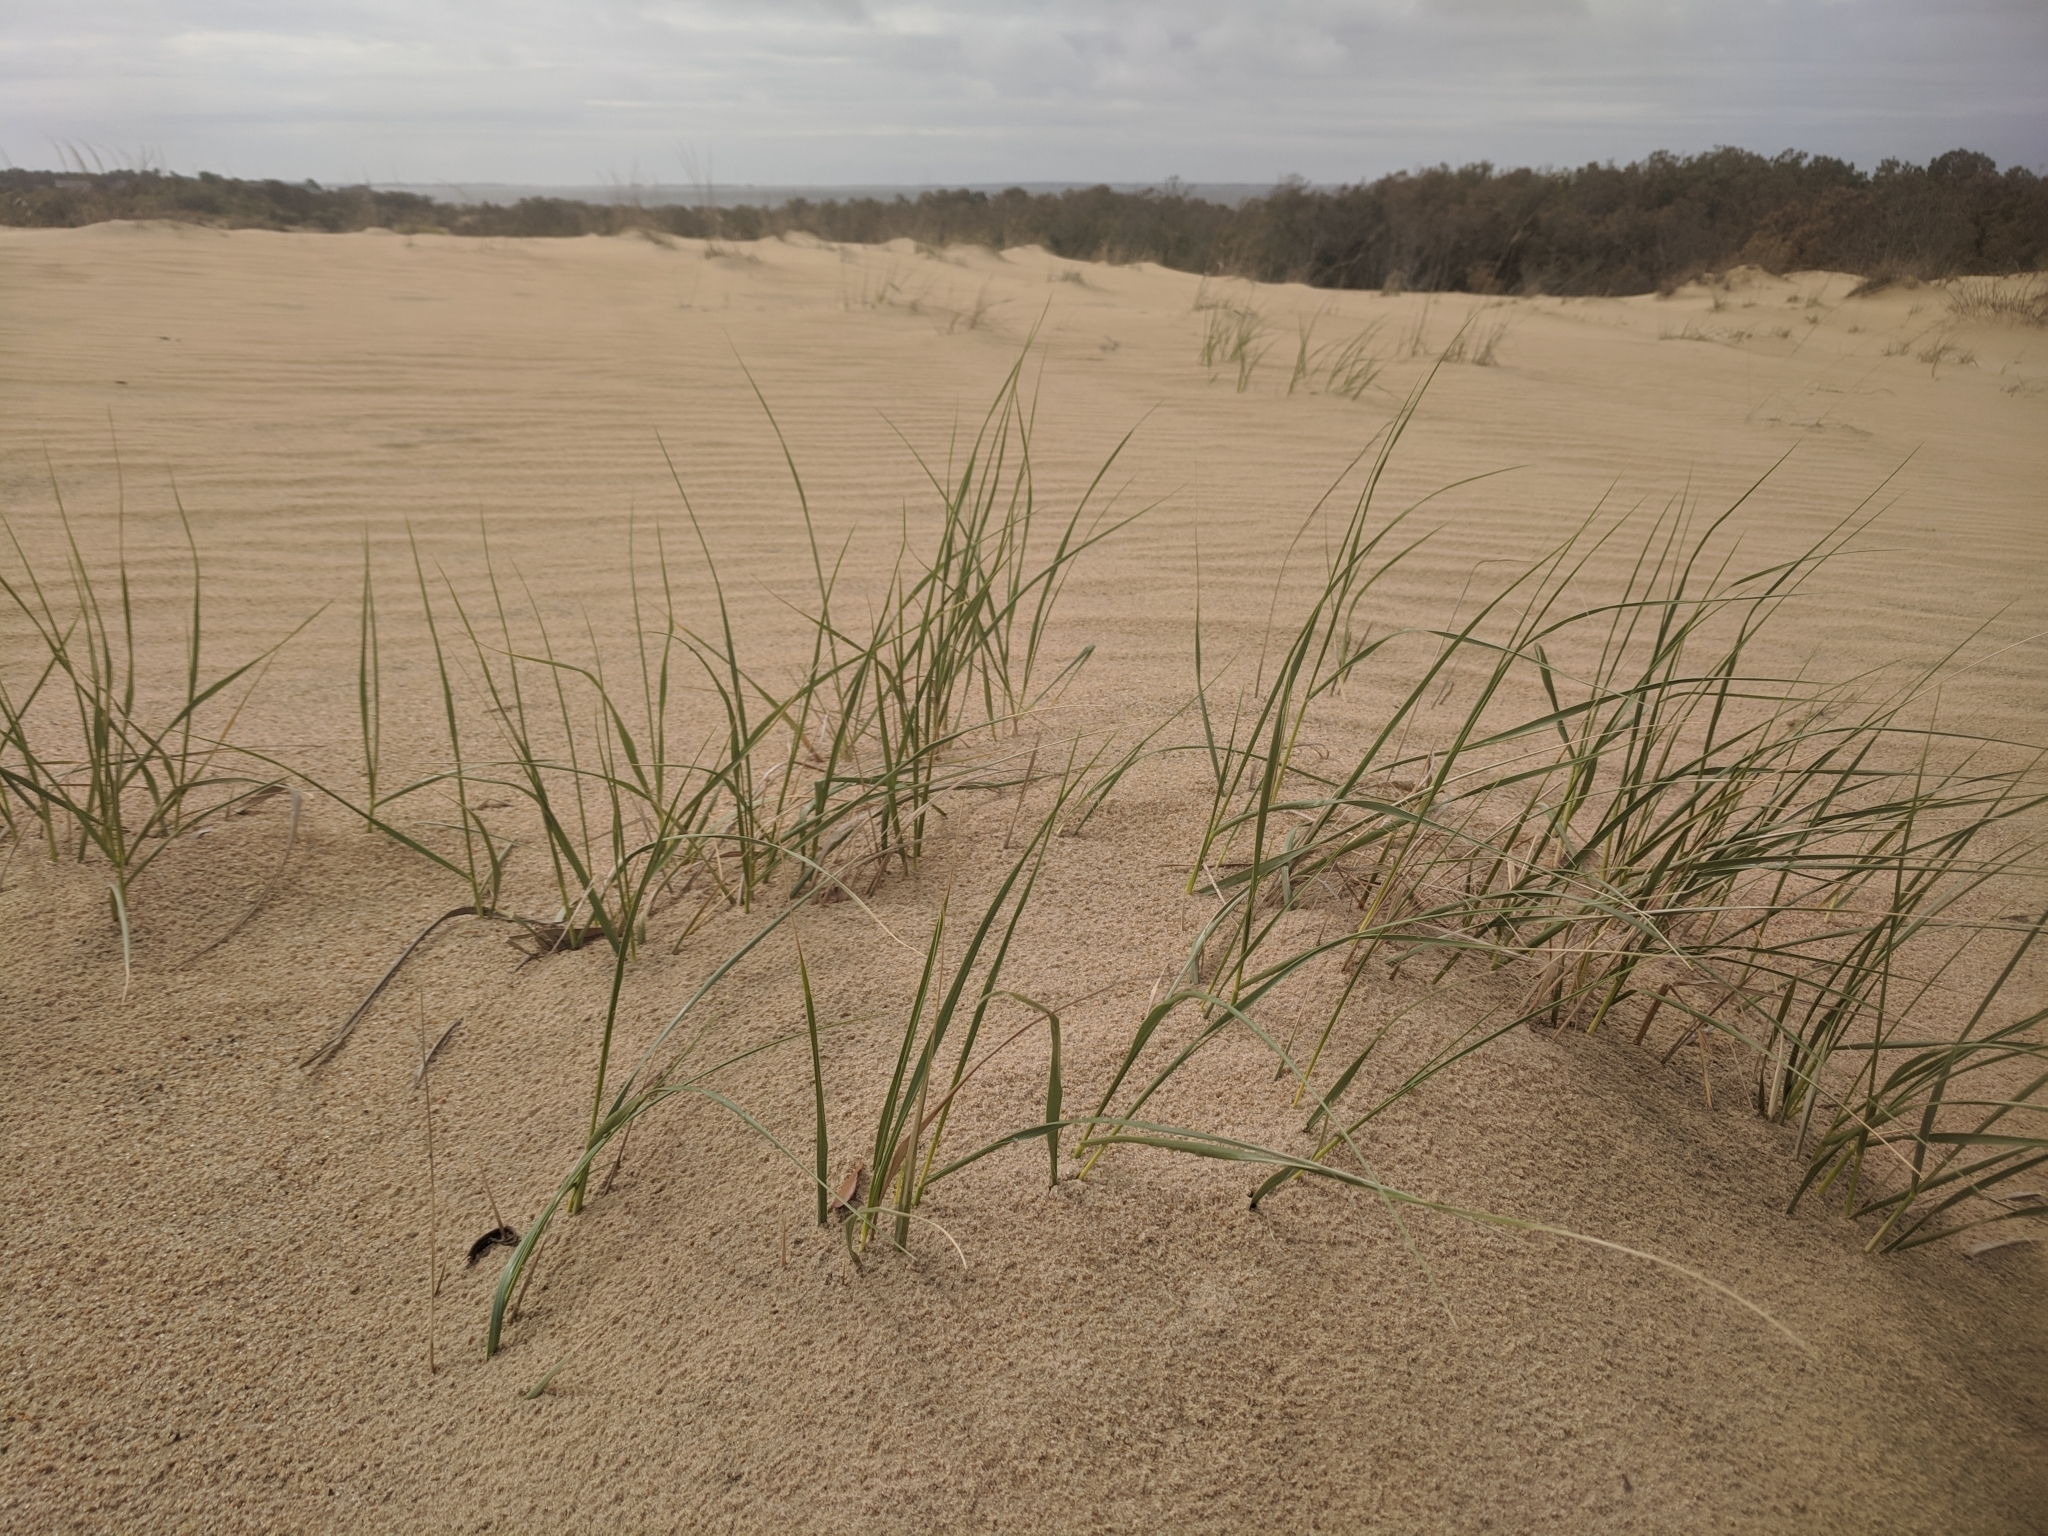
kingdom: Plantae
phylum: Tracheophyta
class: Liliopsida
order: Poales
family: Poaceae
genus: Calamagrostis
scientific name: Calamagrostis breviligulata
